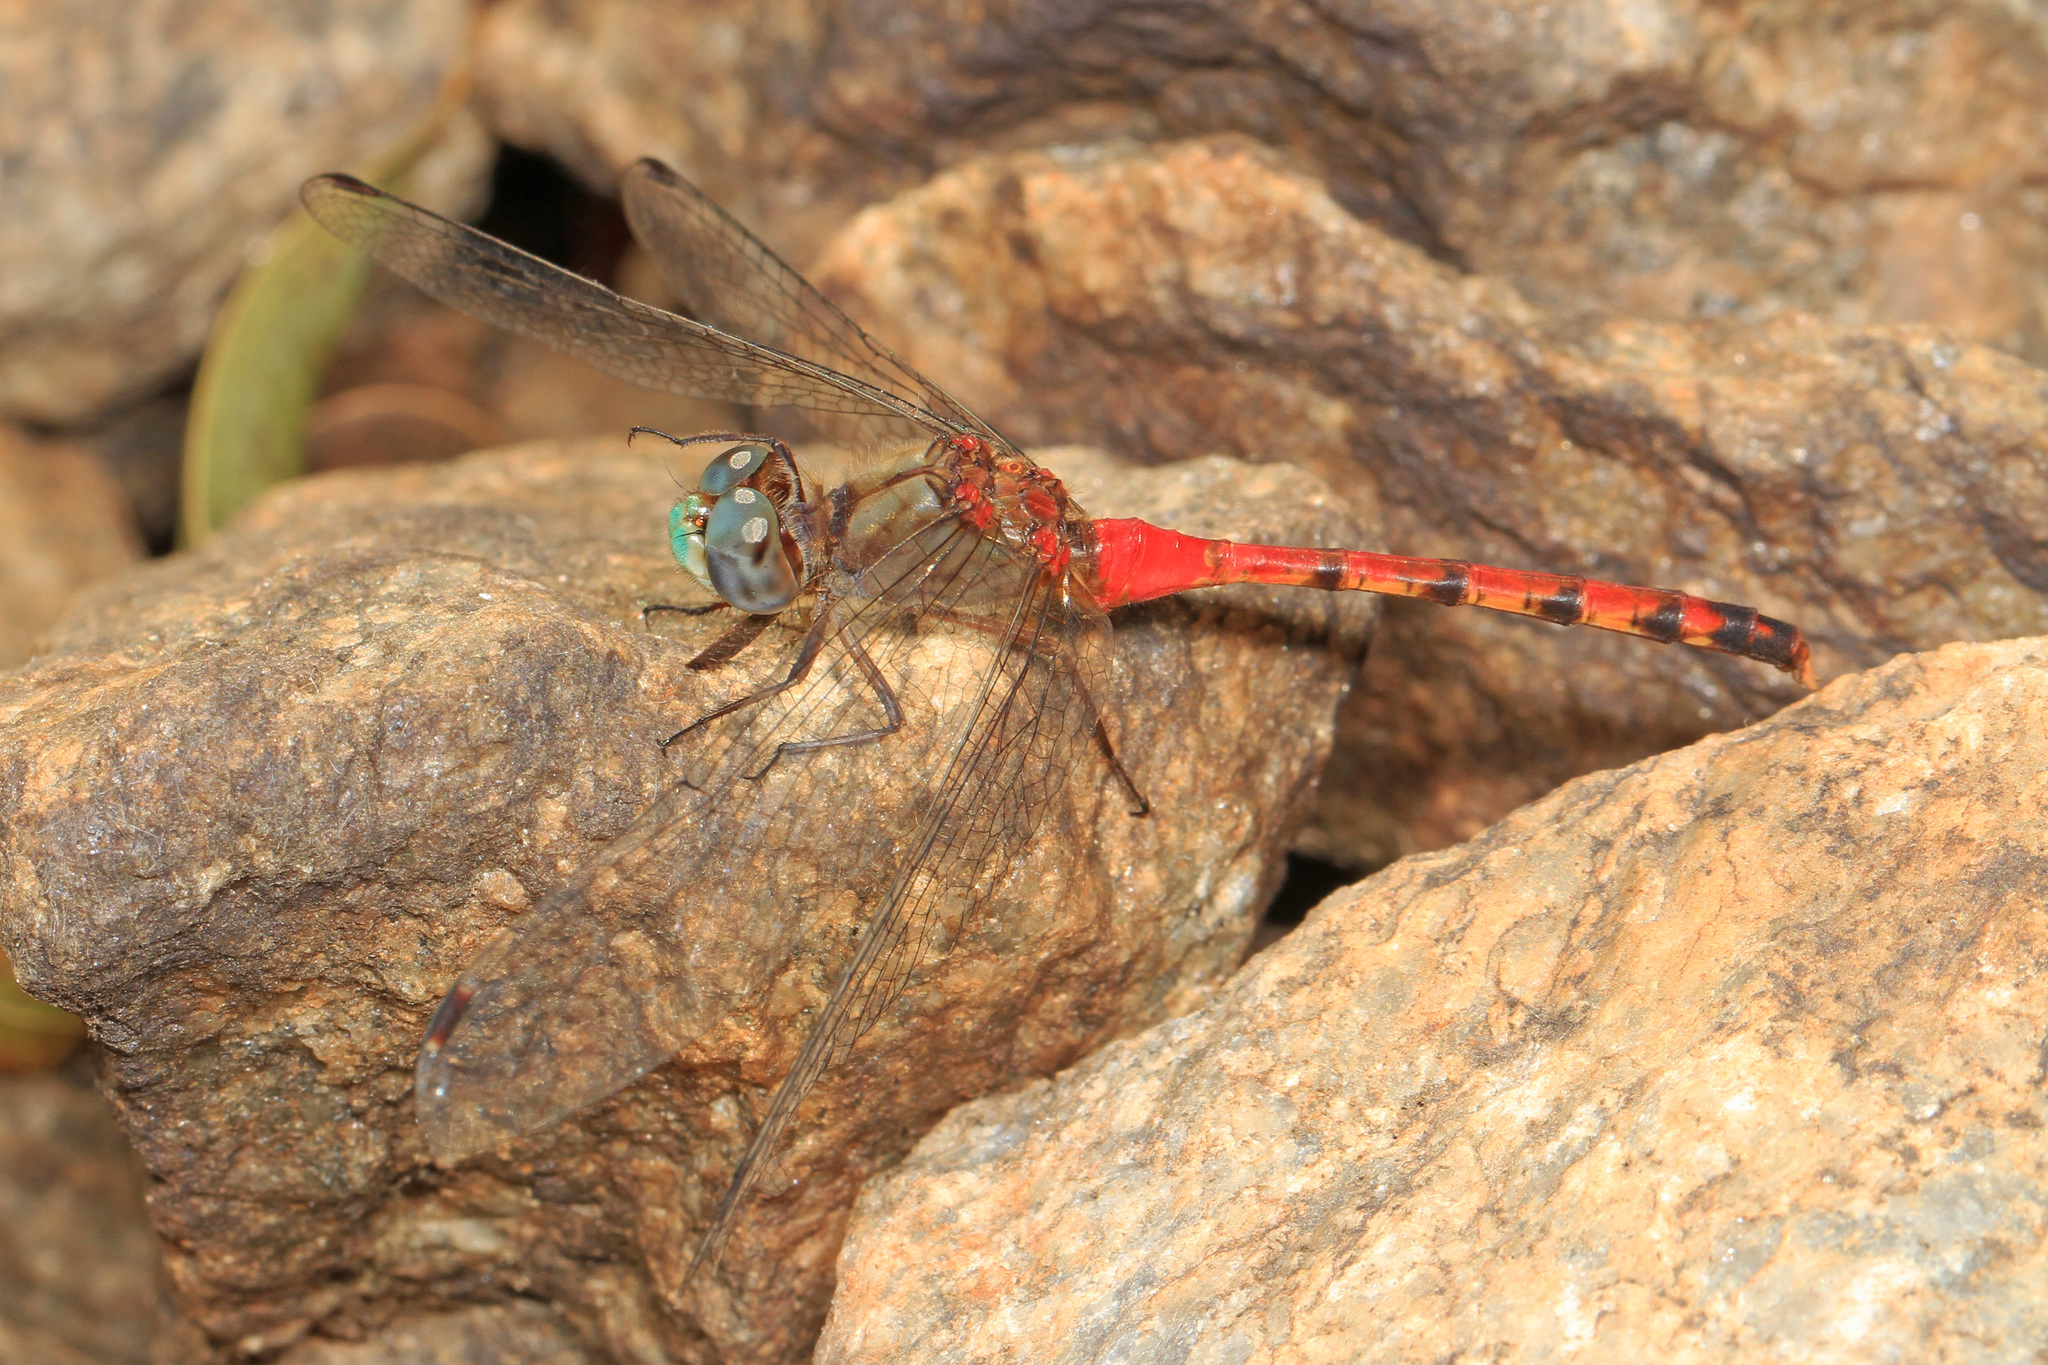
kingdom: Animalia
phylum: Arthropoda
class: Insecta
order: Odonata
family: Libellulidae
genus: Sympetrum
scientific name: Sympetrum ambiguum
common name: Blue-faced meadowhawk
